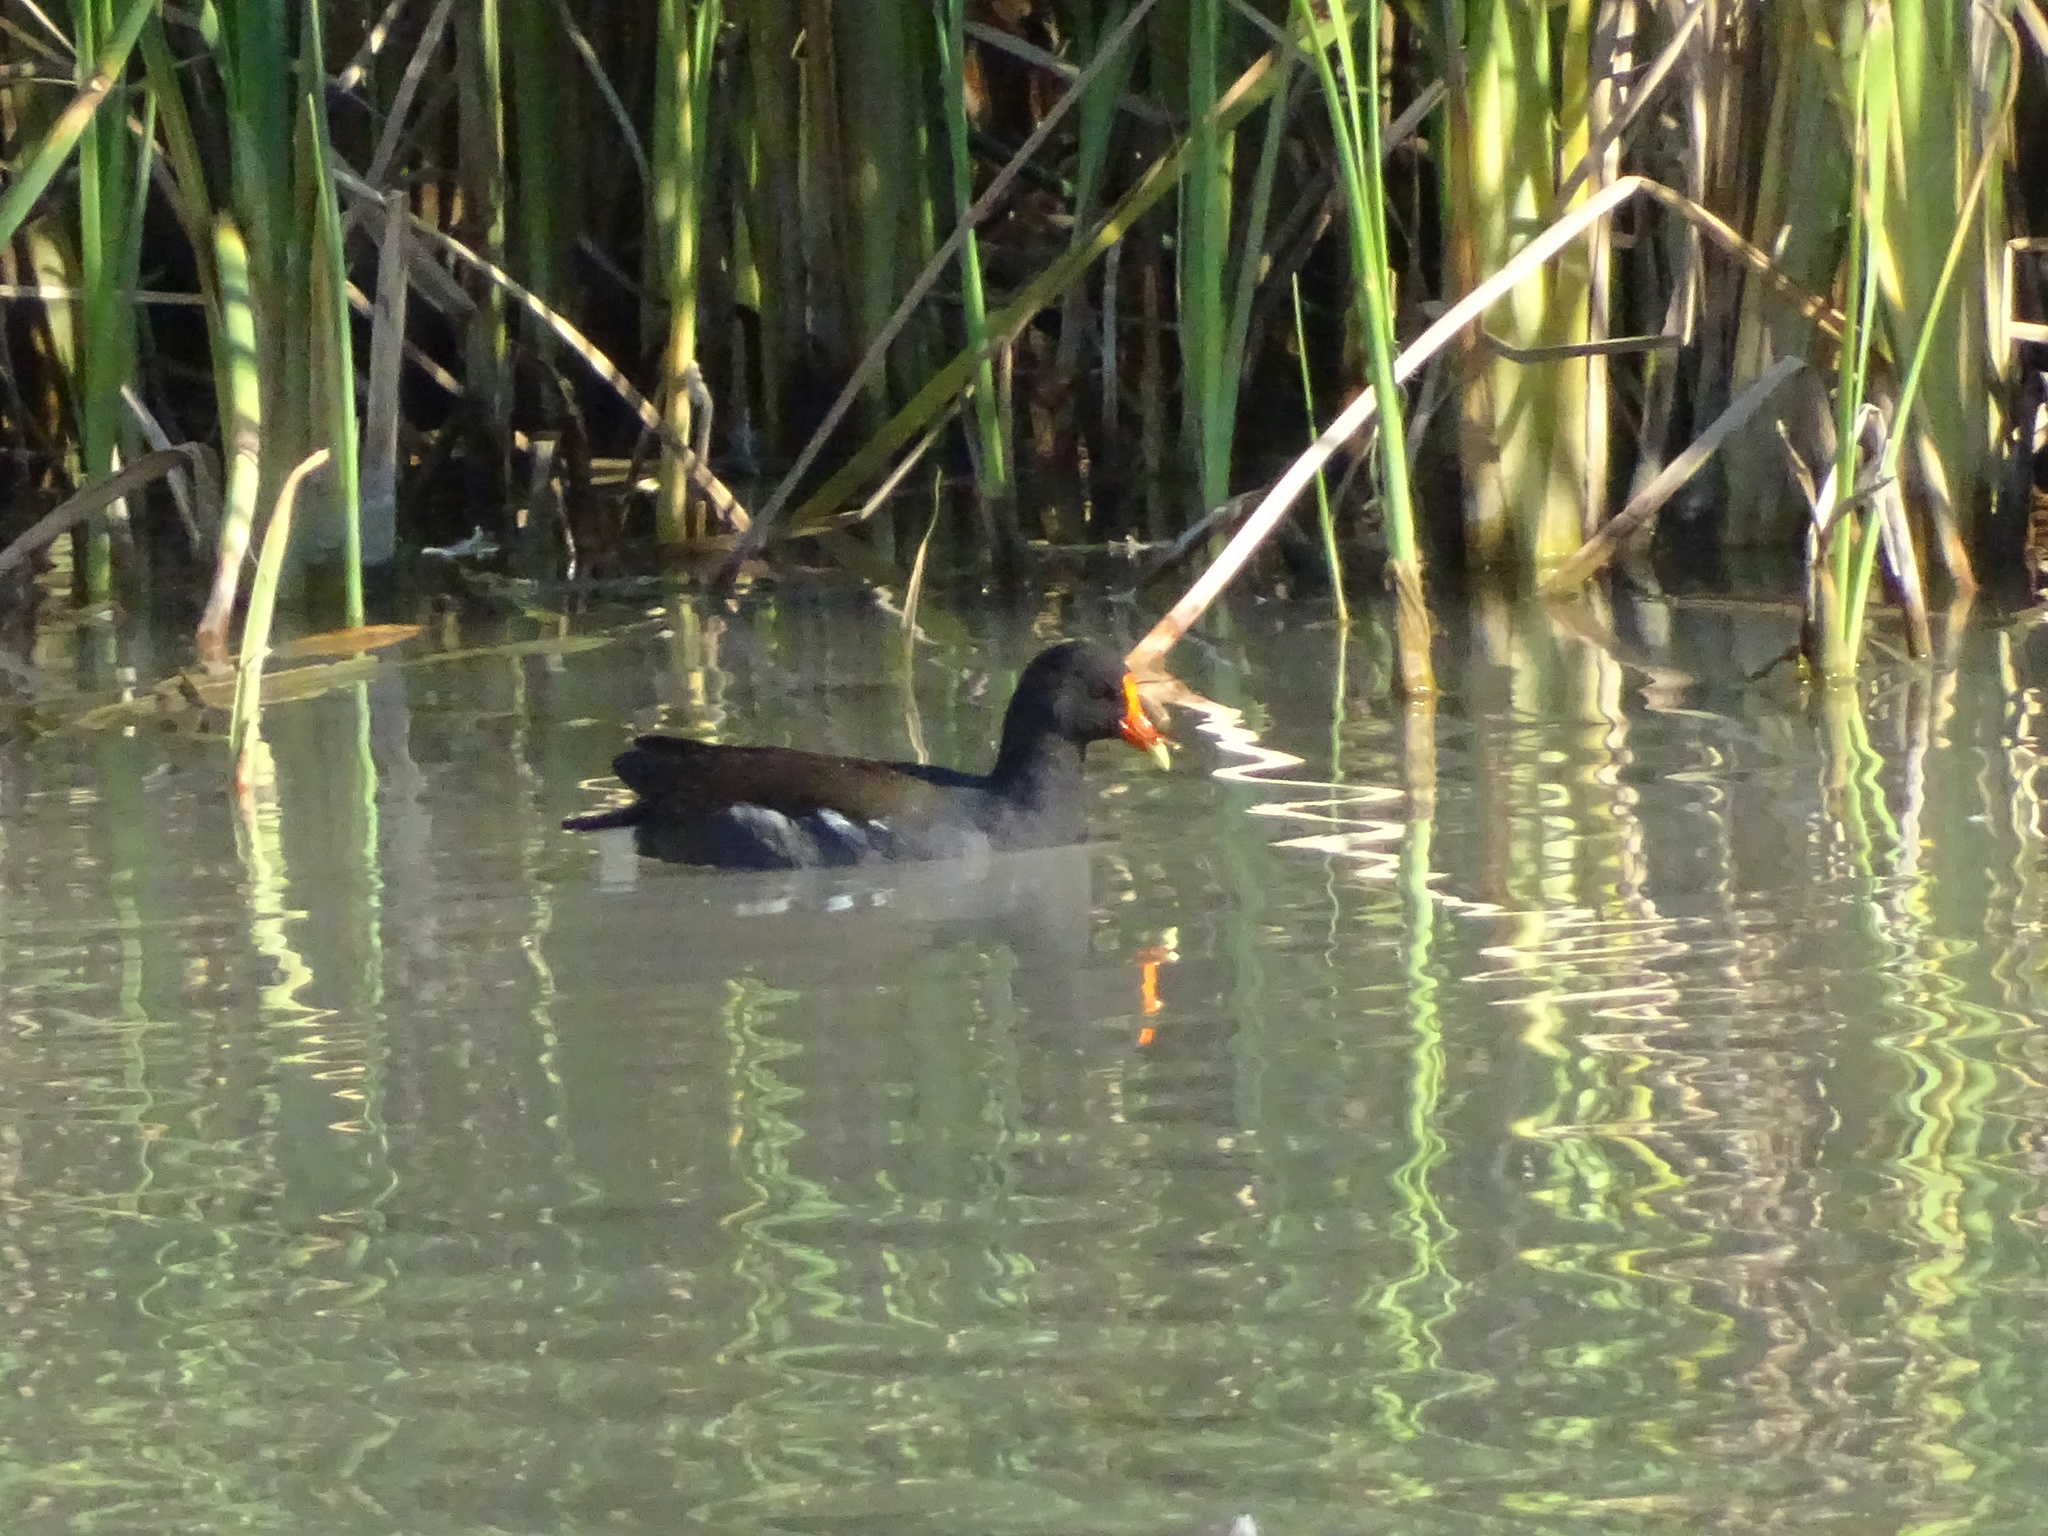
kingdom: Animalia
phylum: Chordata
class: Aves
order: Gruiformes
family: Rallidae
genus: Gallinula
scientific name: Gallinula chloropus
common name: Common moorhen
